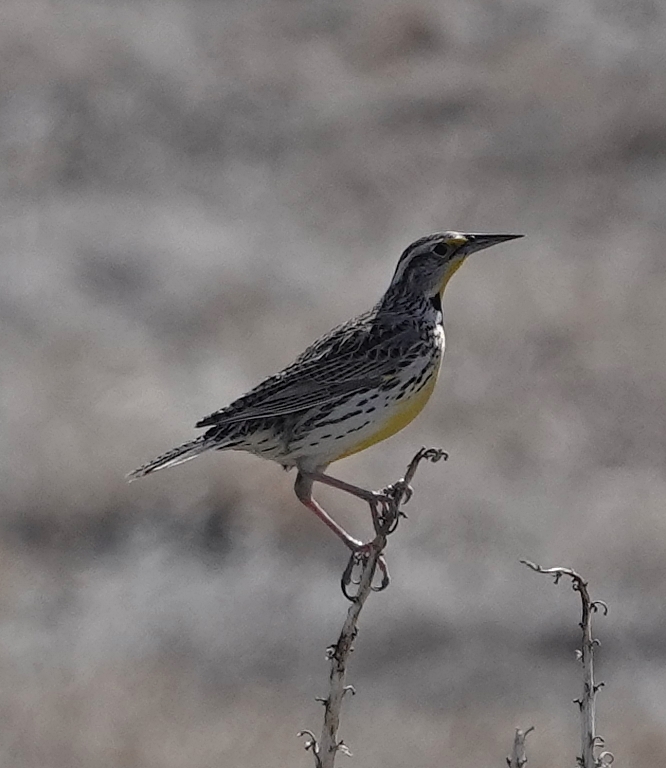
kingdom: Animalia
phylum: Chordata
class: Aves
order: Passeriformes
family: Icteridae
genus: Sturnella
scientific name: Sturnella neglecta
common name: Western meadowlark
